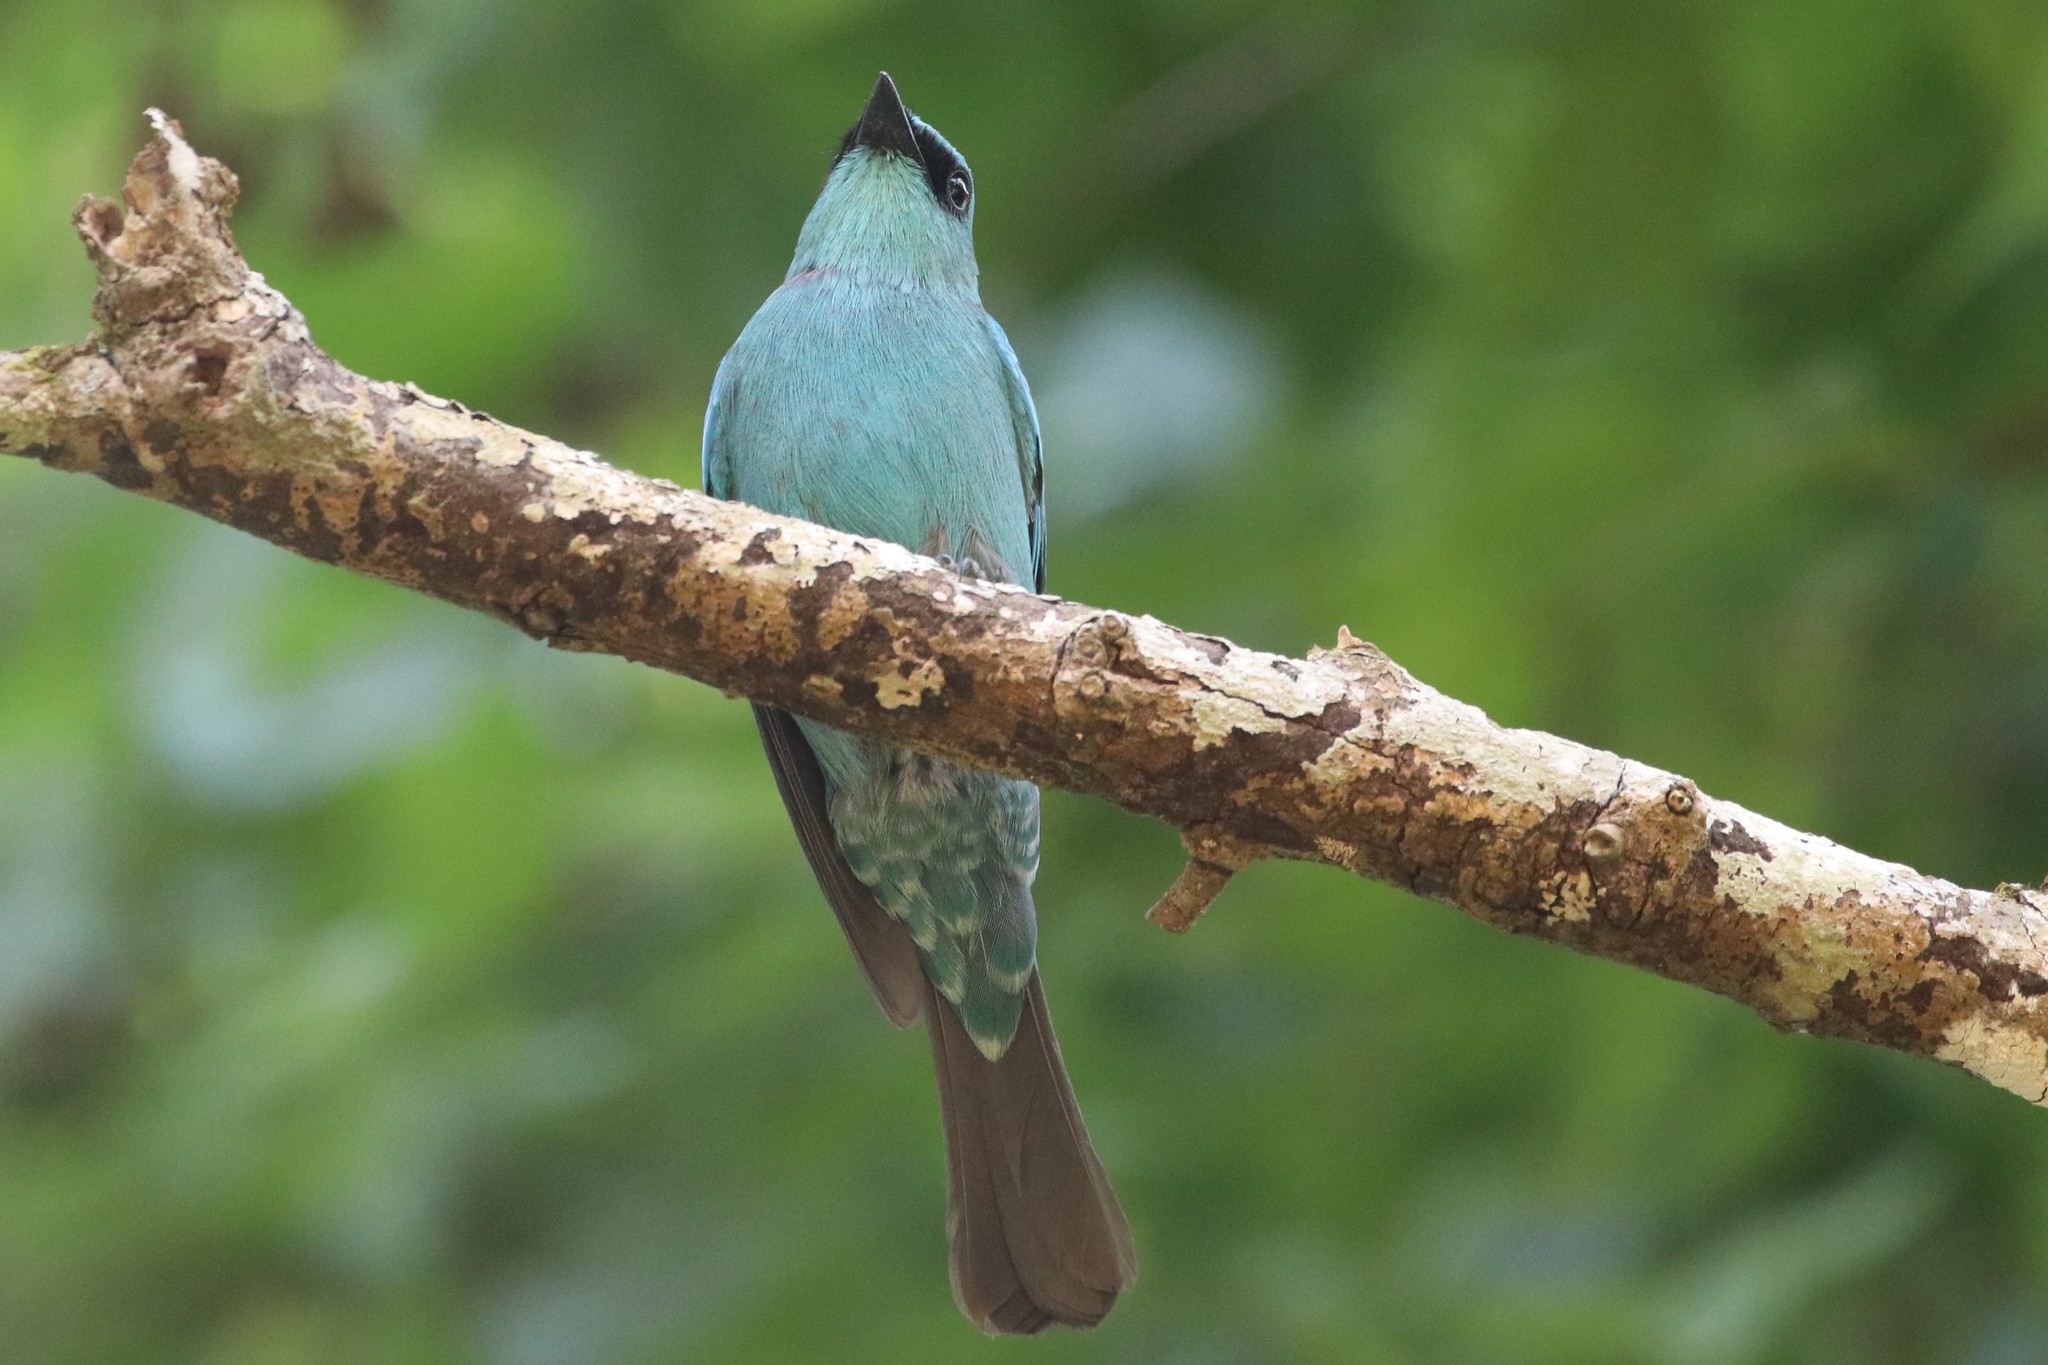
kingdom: Animalia
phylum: Chordata
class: Aves
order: Passeriformes
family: Muscicapidae
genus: Eumyias
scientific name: Eumyias thalassinus
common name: Verditer flycatcher
